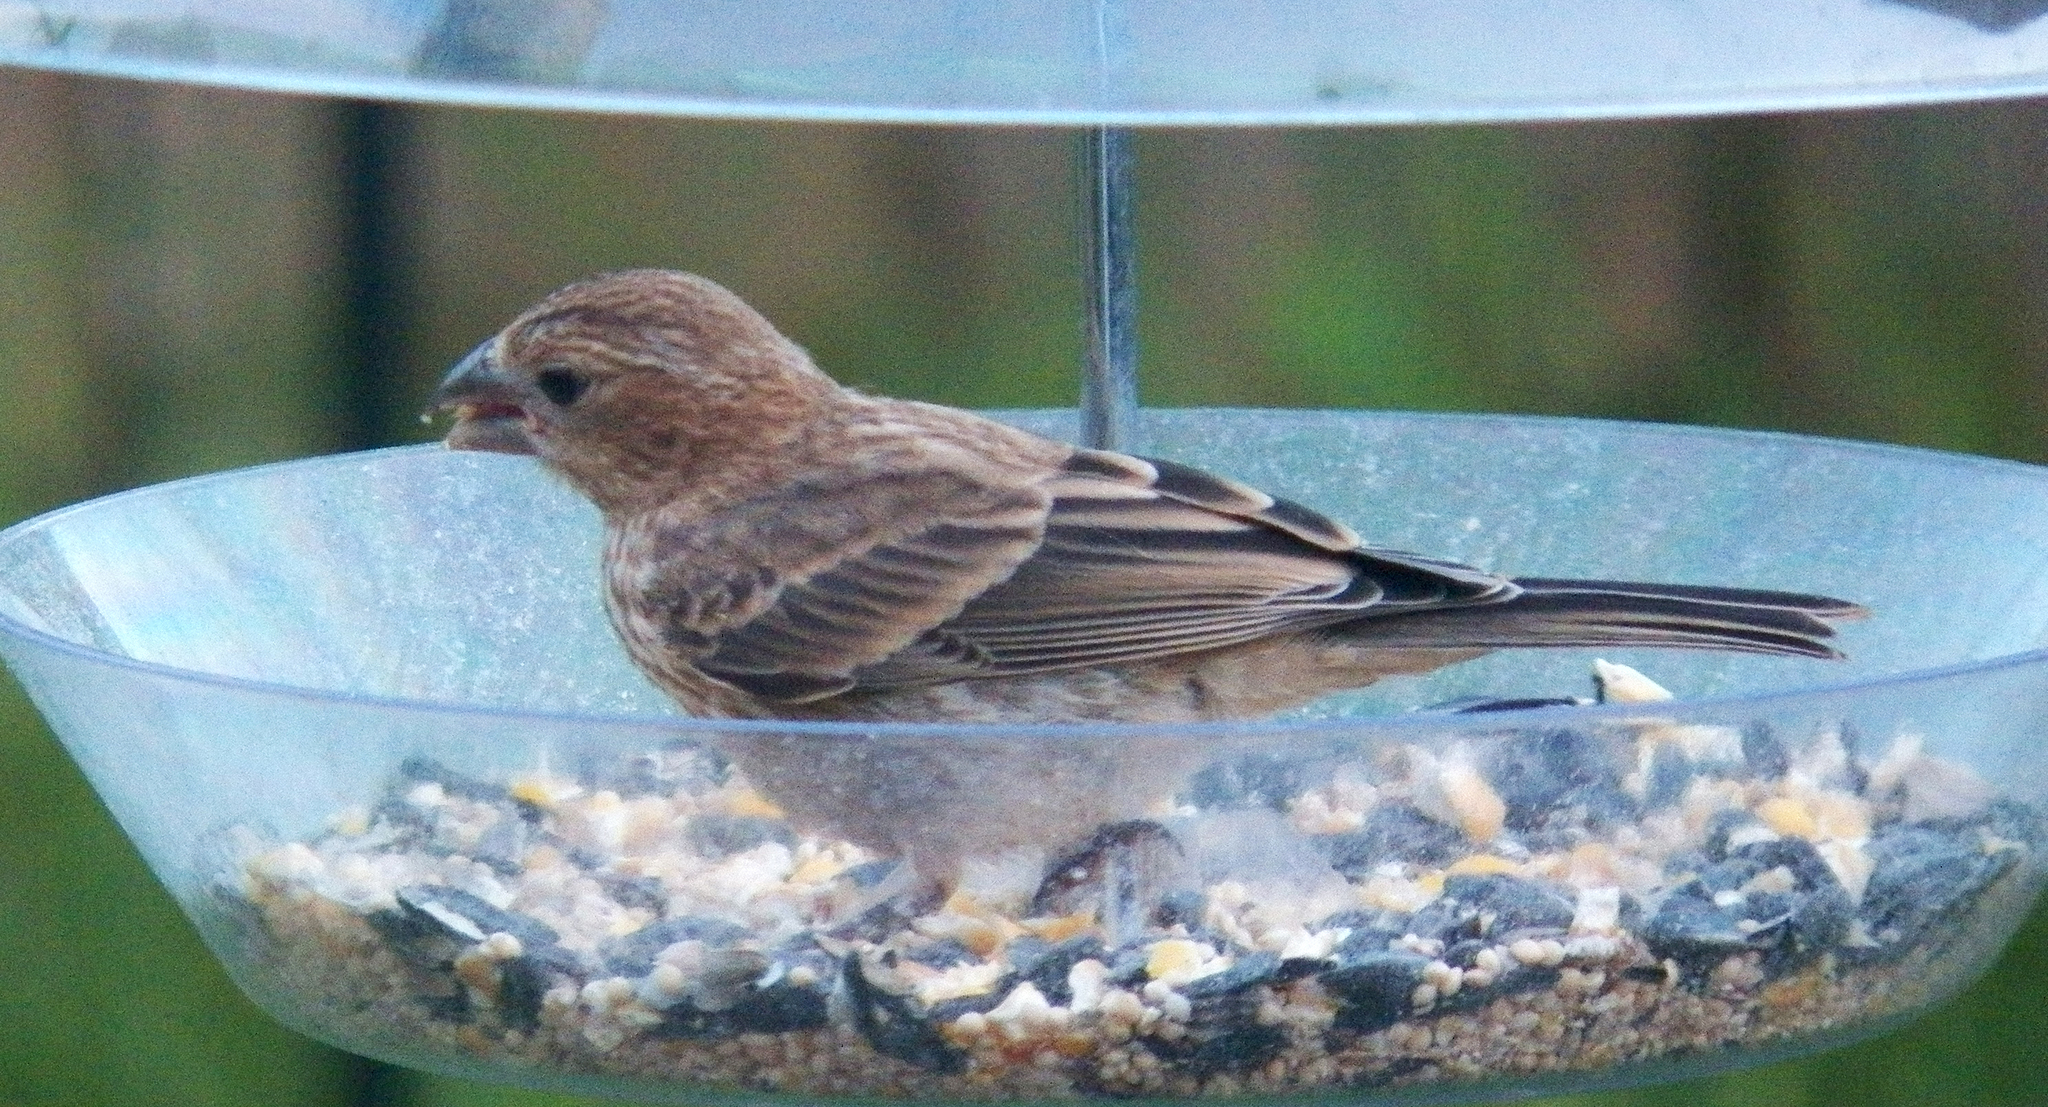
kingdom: Animalia
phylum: Chordata
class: Aves
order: Passeriformes
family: Fringillidae
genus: Haemorhous
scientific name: Haemorhous mexicanus
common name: House finch
